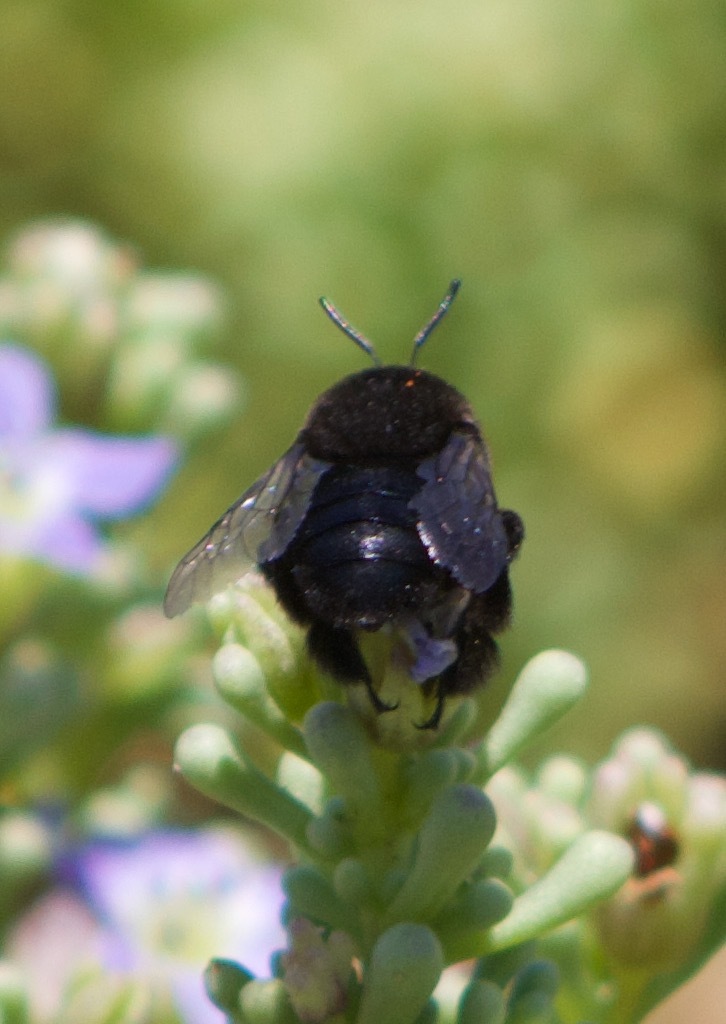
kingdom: Animalia
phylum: Arthropoda
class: Insecta
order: Hymenoptera
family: Apidae
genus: Centris
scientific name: Centris nigerrima
